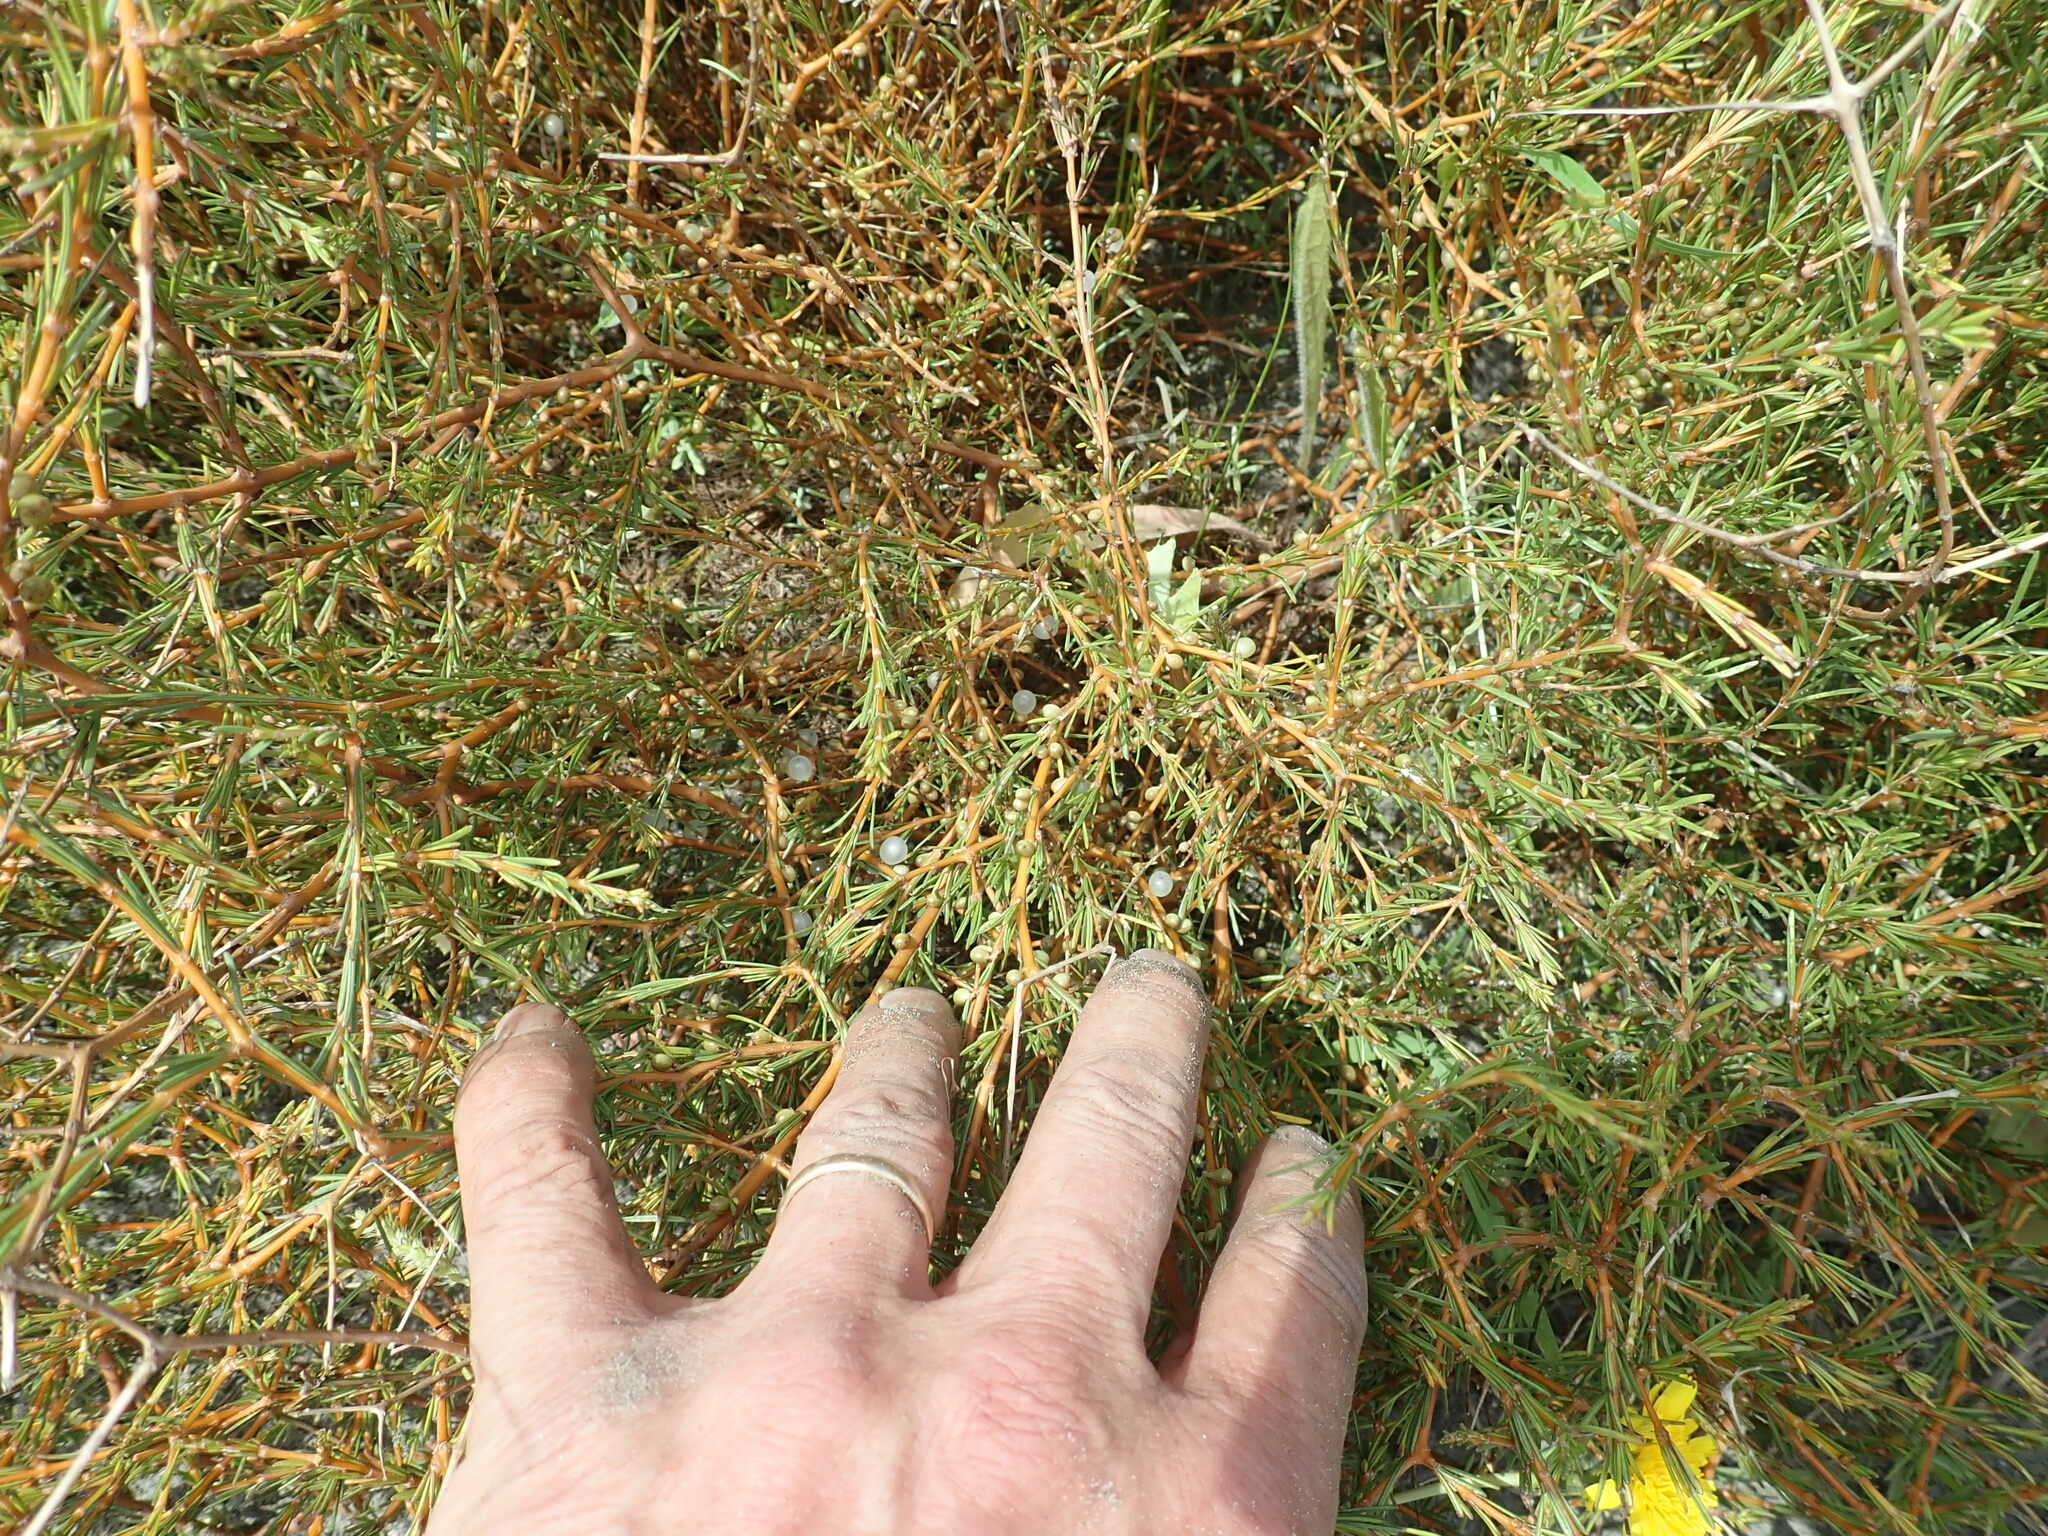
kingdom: Plantae
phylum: Tracheophyta
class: Magnoliopsida
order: Gentianales
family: Rubiaceae
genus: Coprosma
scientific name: Coprosma acerosa
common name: Sand coprosma
